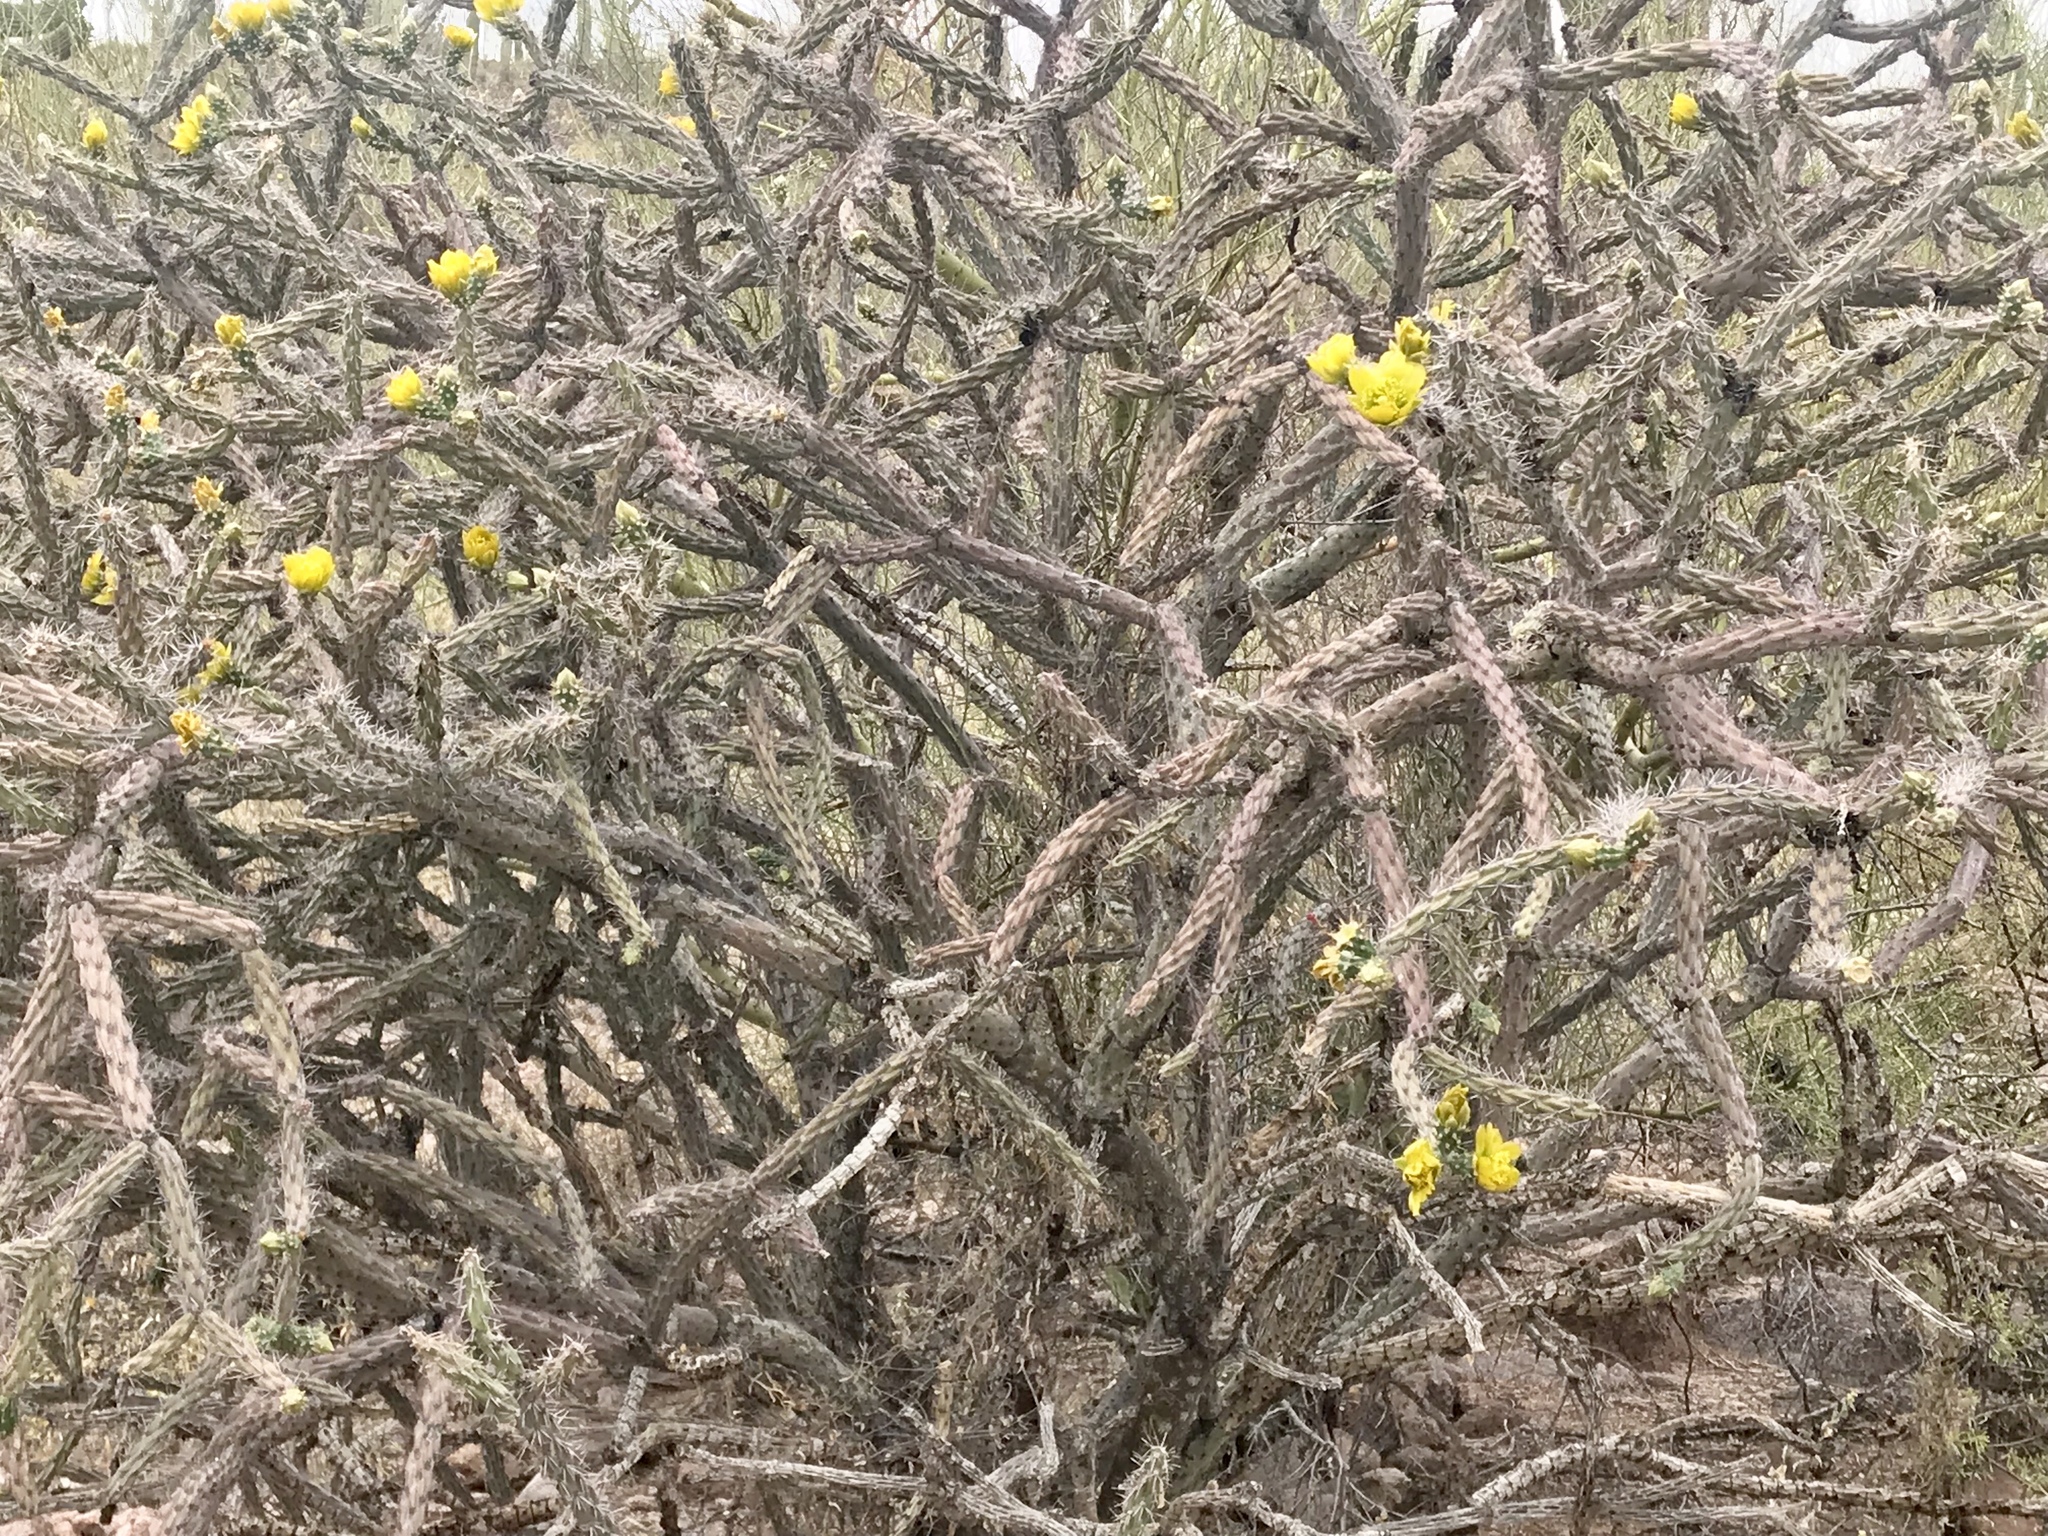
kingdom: Plantae
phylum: Tracheophyta
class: Magnoliopsida
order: Caryophyllales
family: Cactaceae
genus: Cylindropuntia
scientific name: Cylindropuntia thurberi
